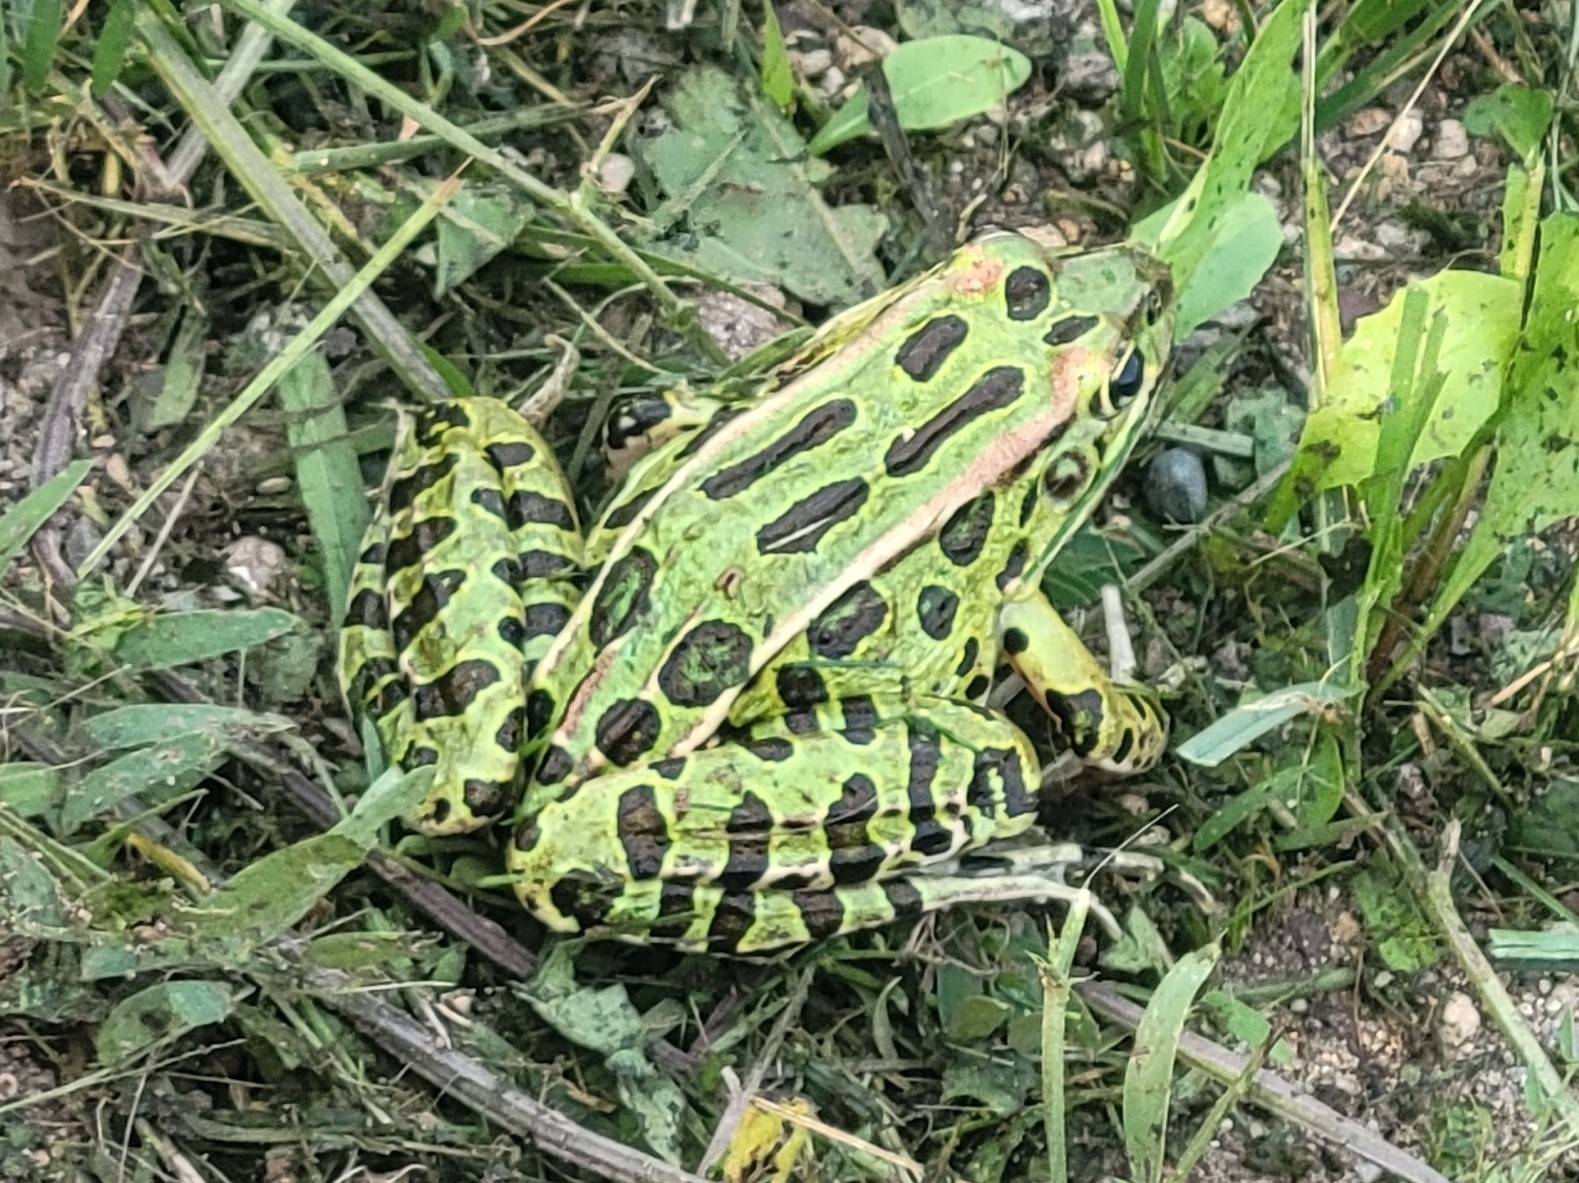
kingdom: Animalia
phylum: Chordata
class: Amphibia
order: Anura
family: Ranidae
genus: Lithobates
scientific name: Lithobates pipiens
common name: Northern leopard frog
